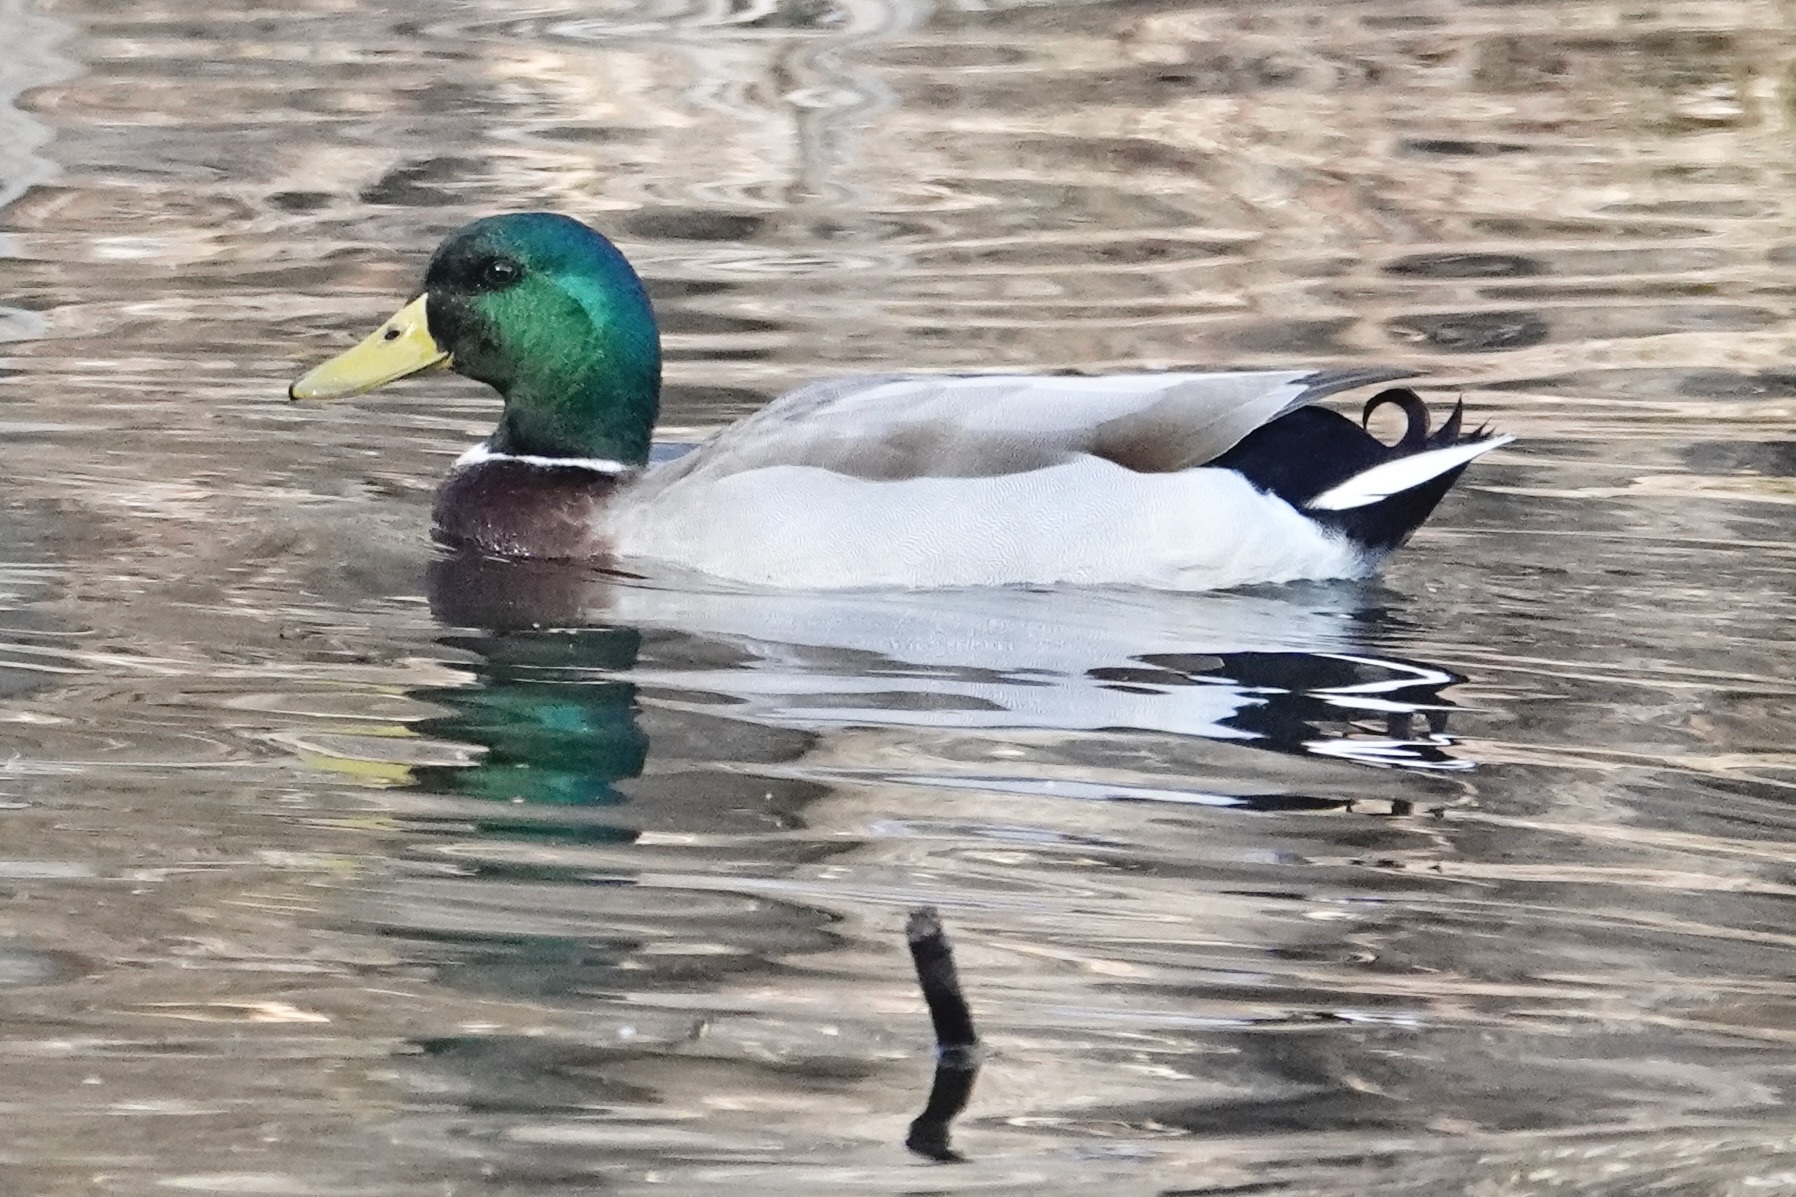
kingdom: Animalia
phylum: Chordata
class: Aves
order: Anseriformes
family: Anatidae
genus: Anas
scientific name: Anas platyrhynchos
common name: Mallard
